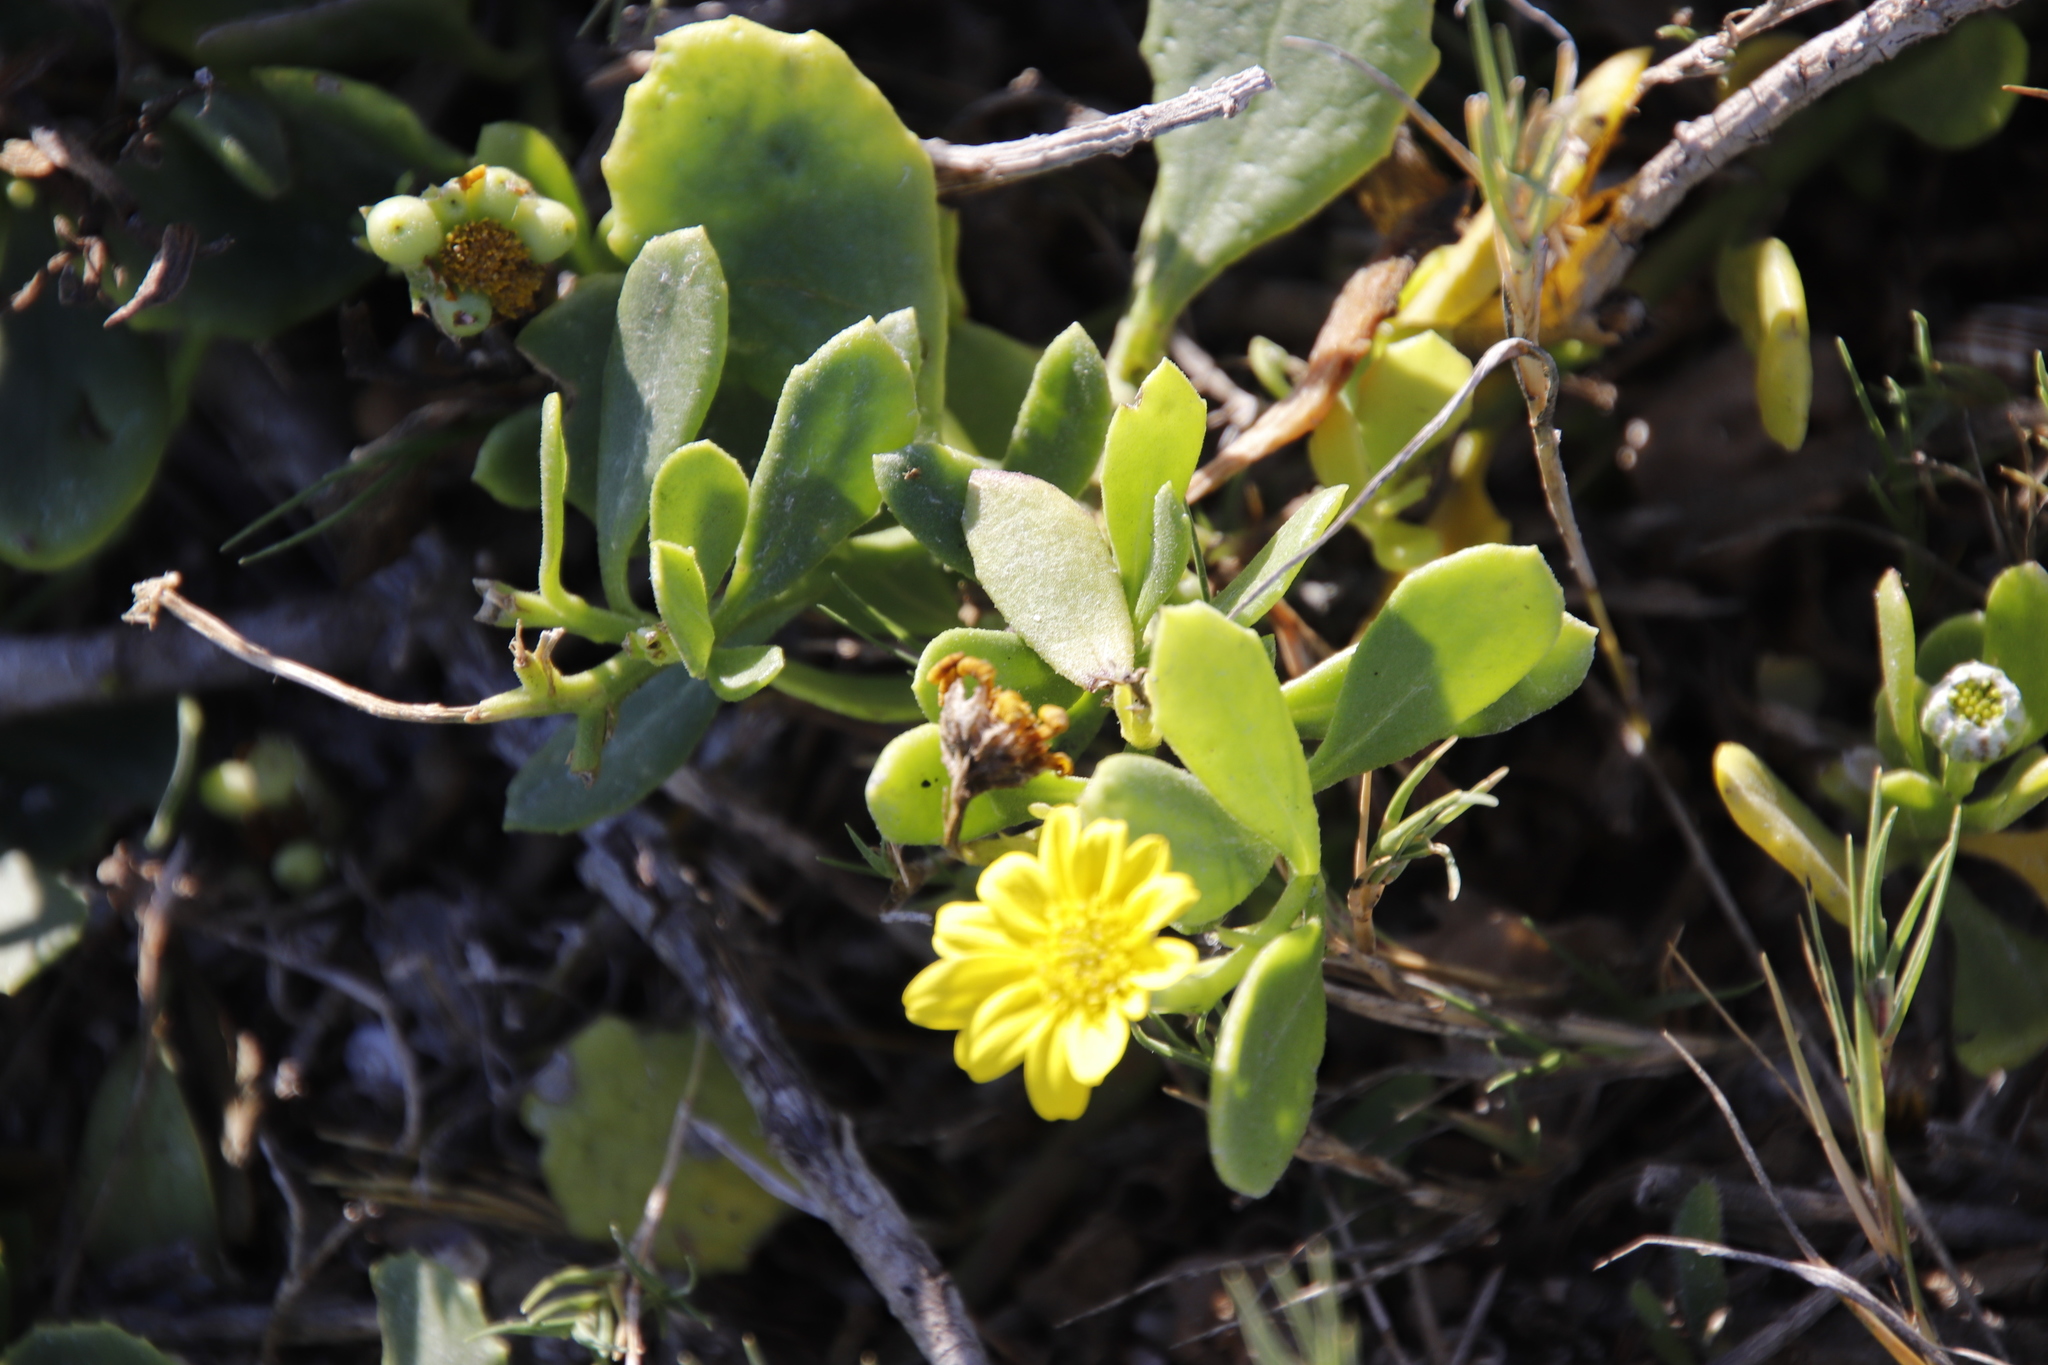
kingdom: Plantae
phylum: Tracheophyta
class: Magnoliopsida
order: Asterales
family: Asteraceae
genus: Osteospermum
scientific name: Osteospermum moniliferum
